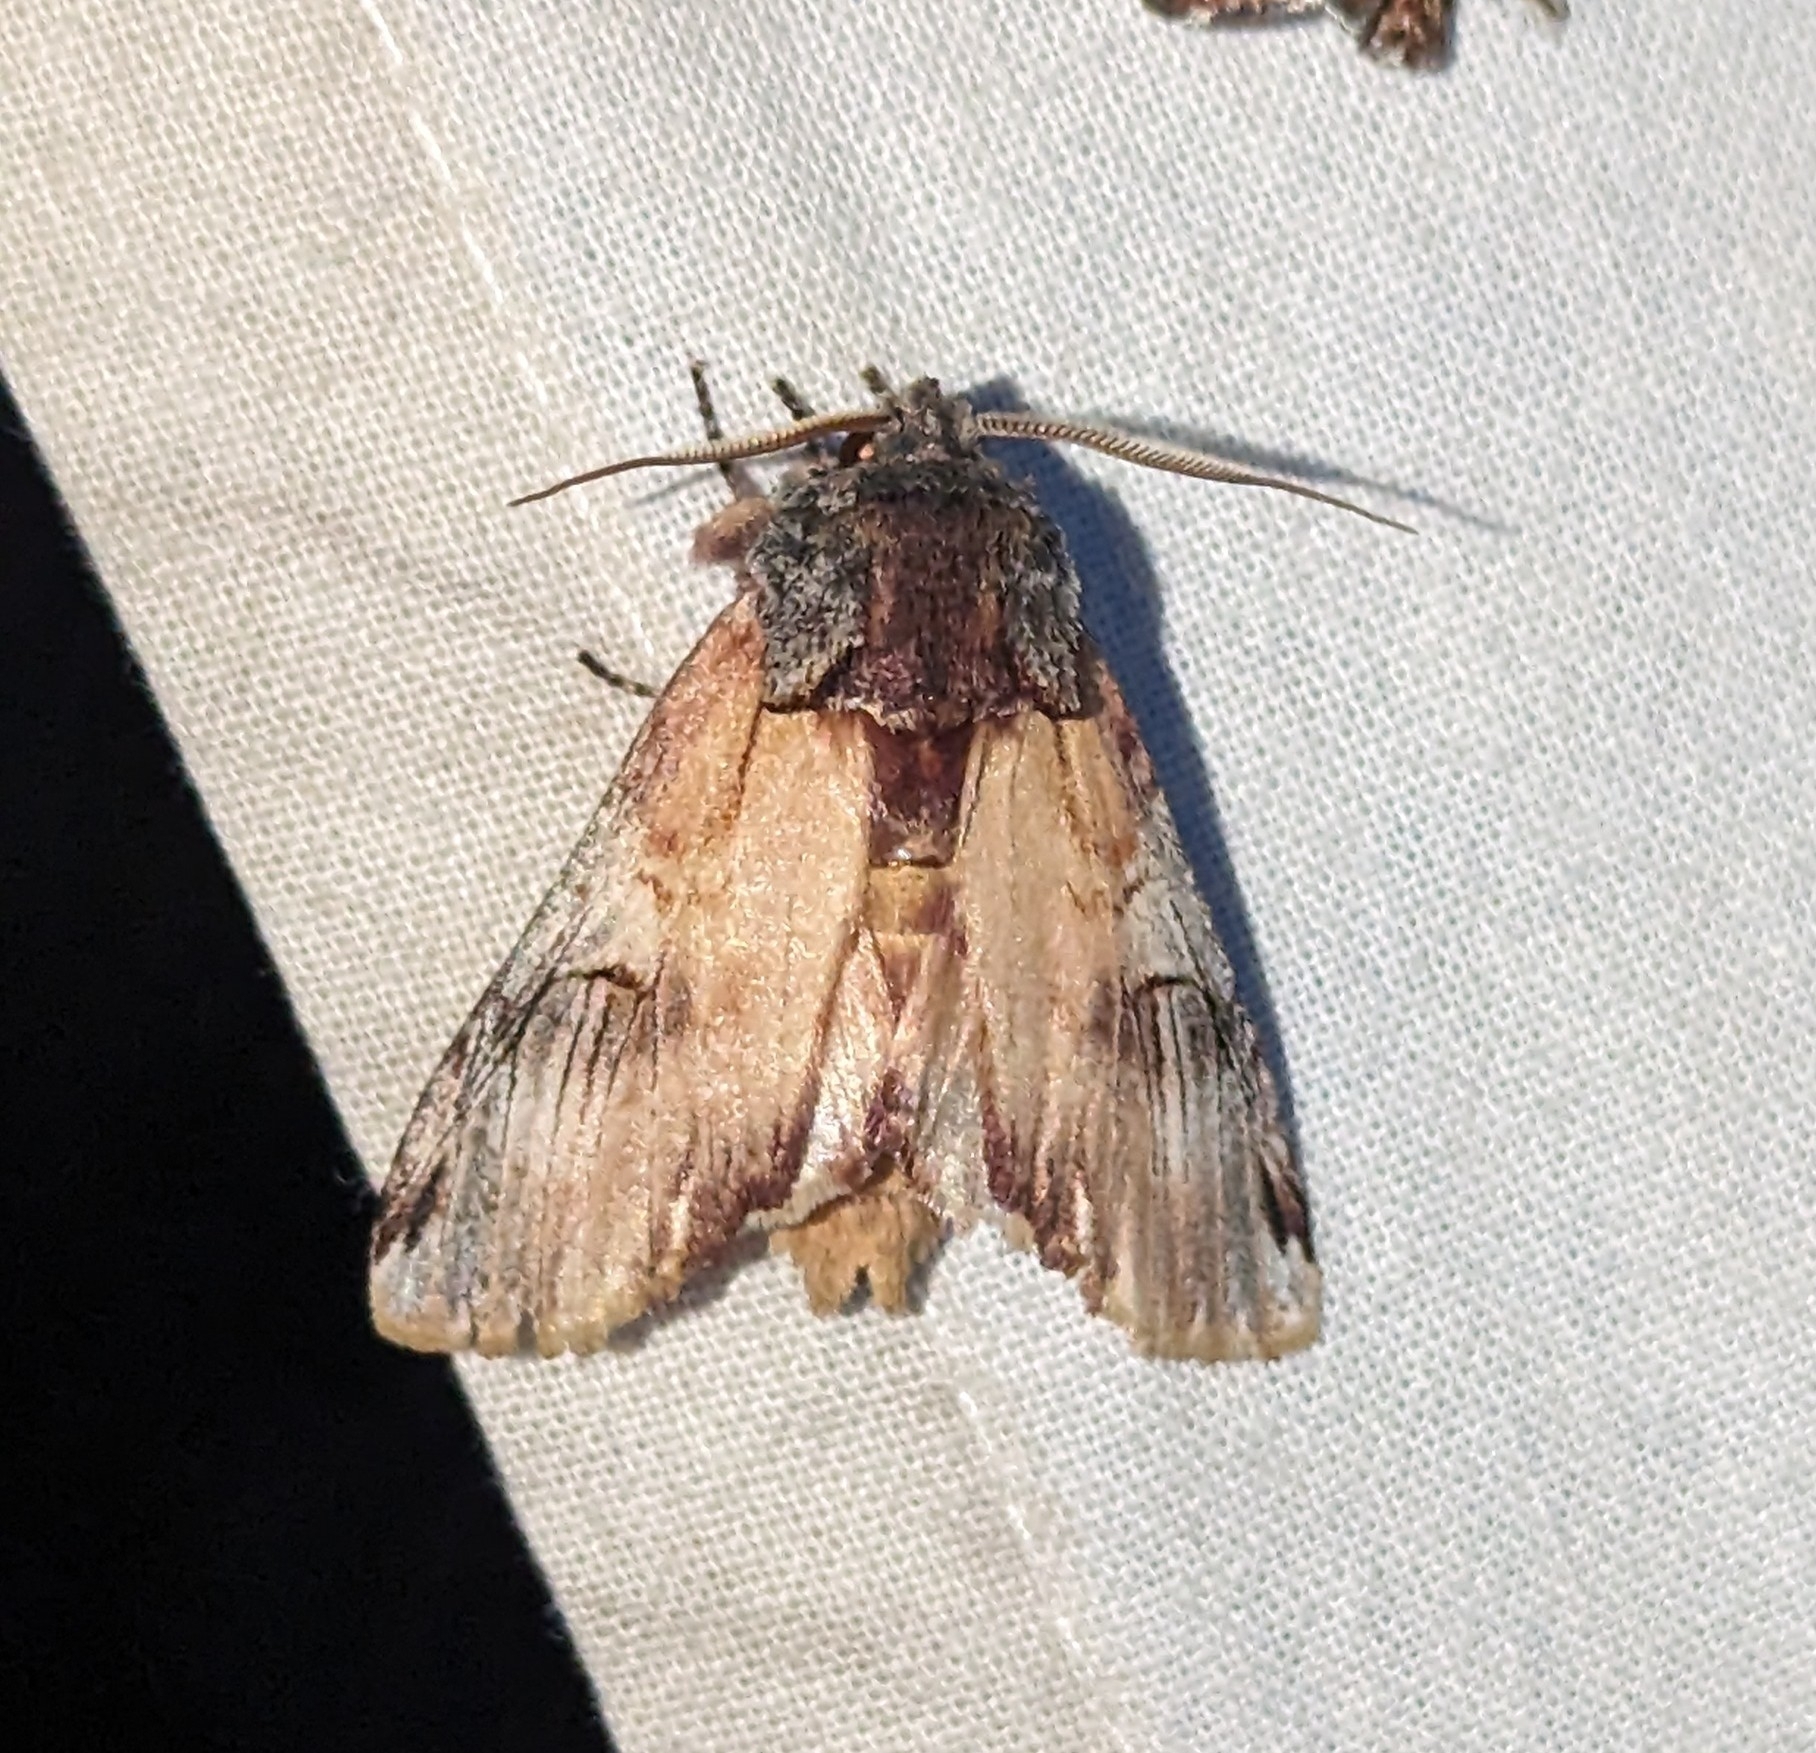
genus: Ianassa
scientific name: Ianassa
